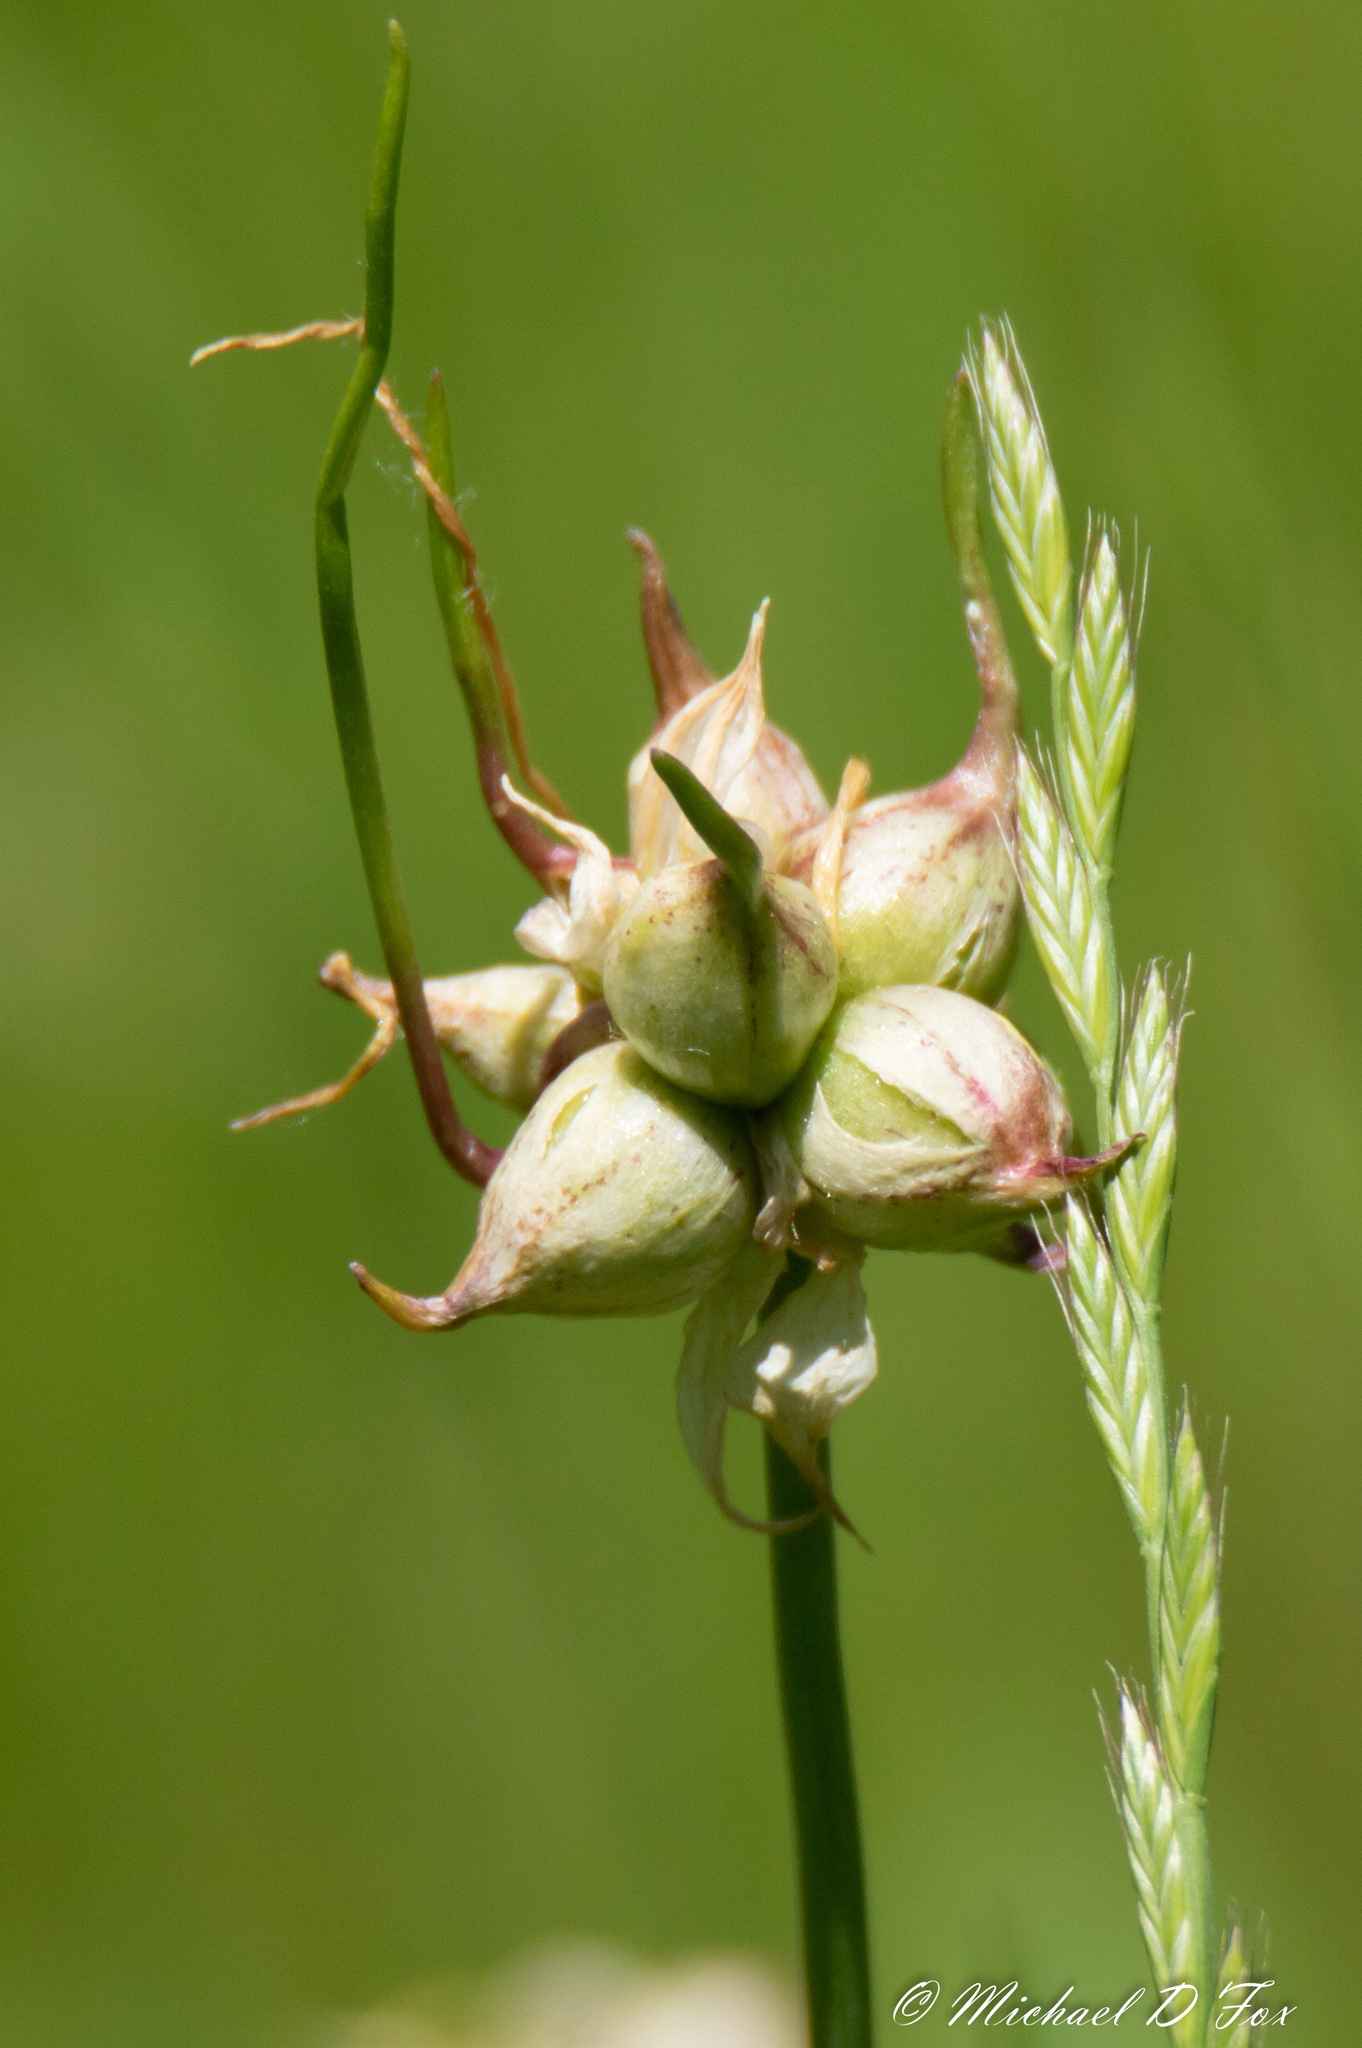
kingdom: Plantae
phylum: Tracheophyta
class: Liliopsida
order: Asparagales
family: Amaryllidaceae
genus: Allium
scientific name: Allium canadense
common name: Meadow garlic
